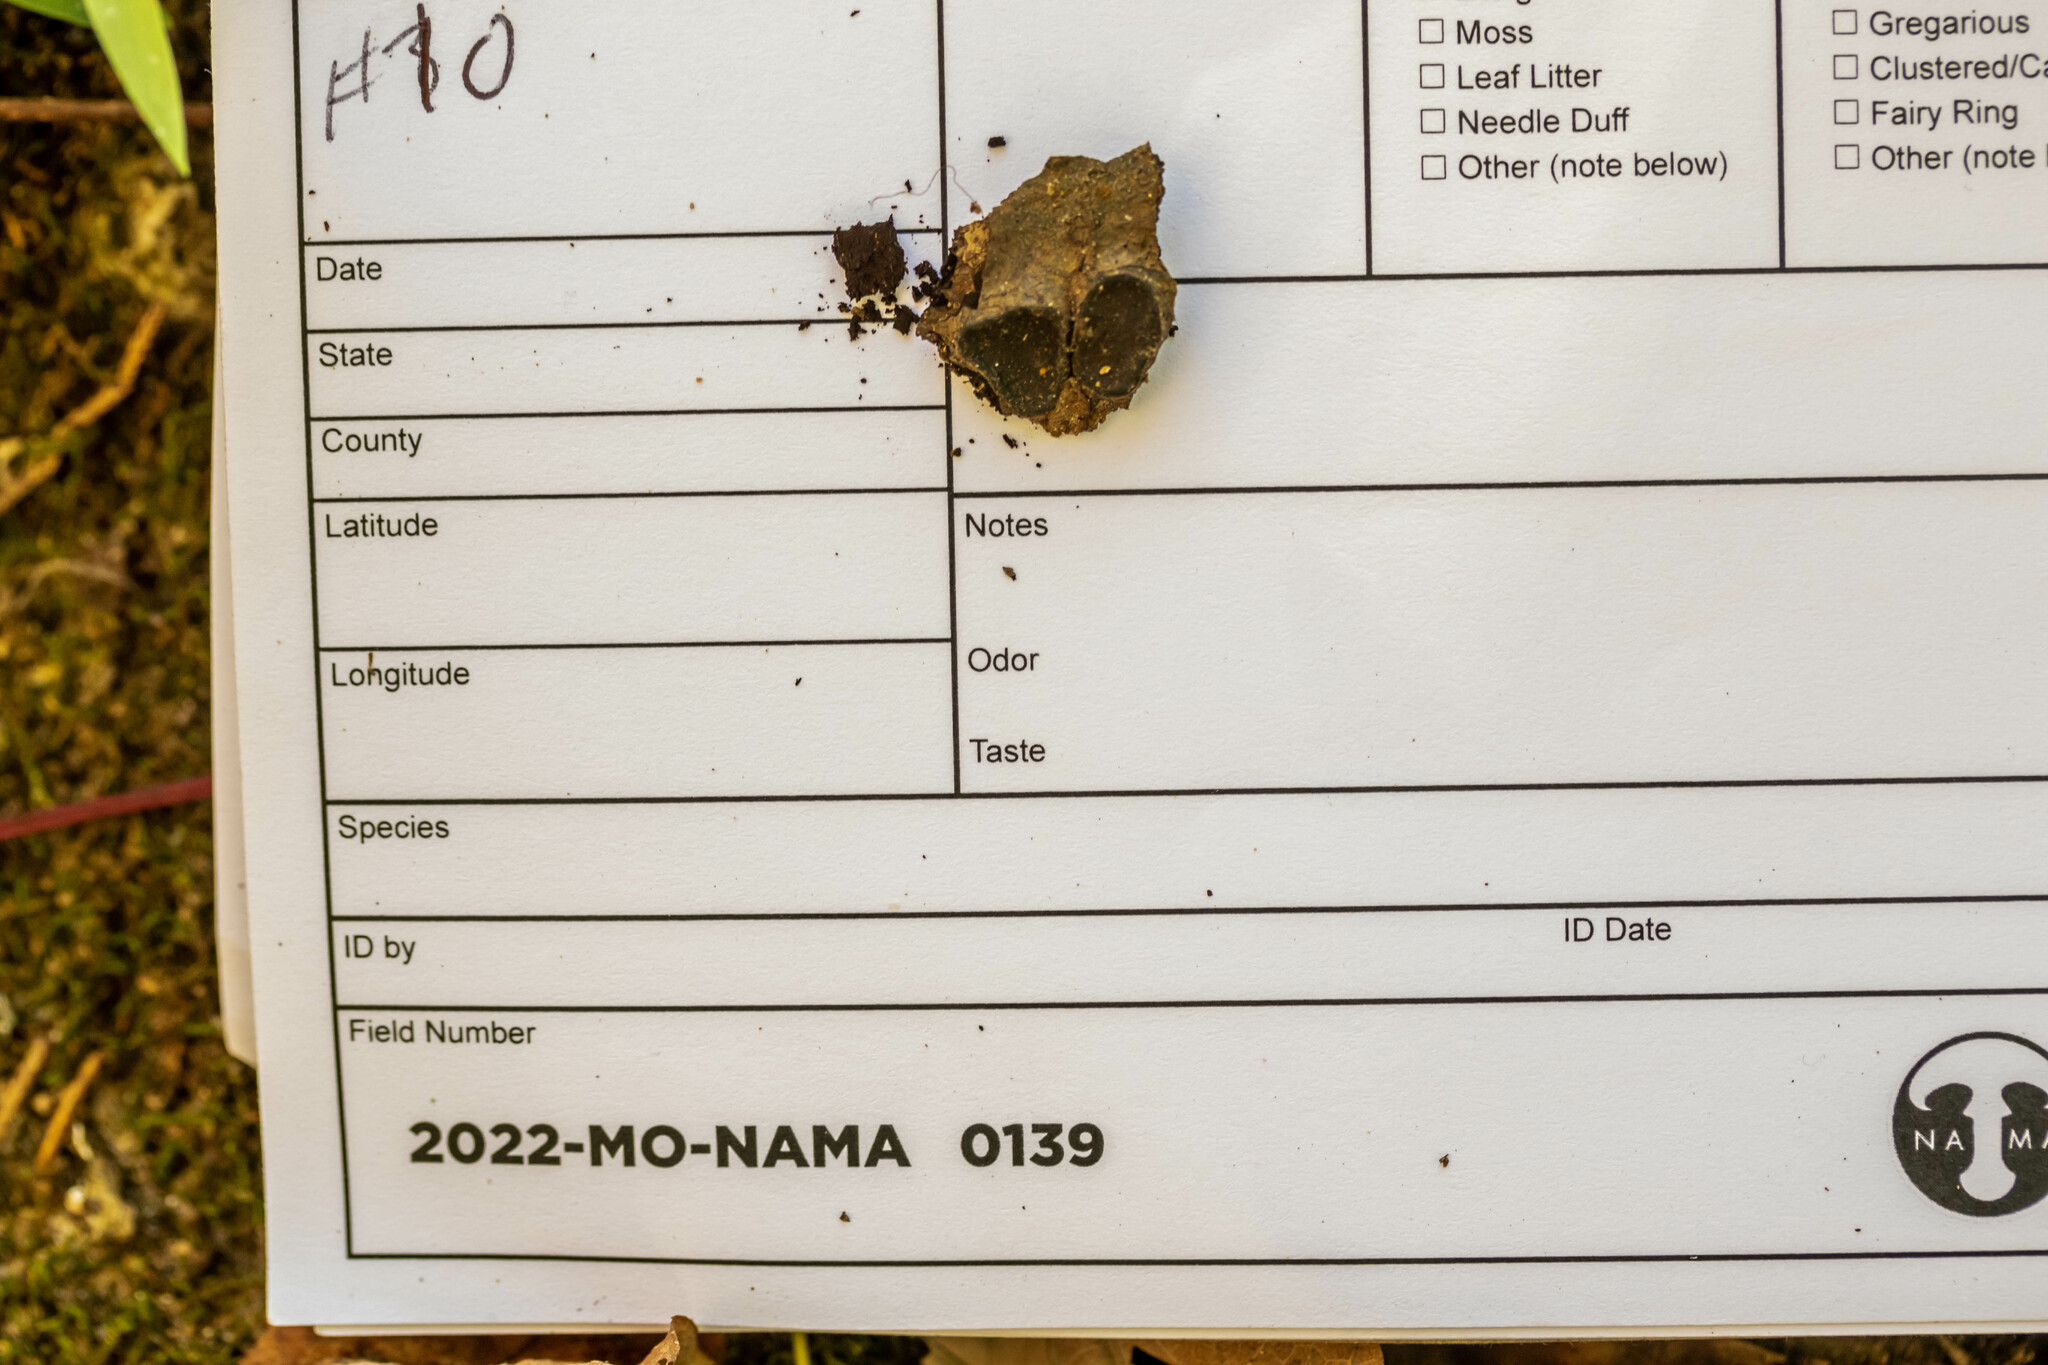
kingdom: Fungi
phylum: Ascomycota
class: Sordariomycetes
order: Xylariales
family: Graphostromataceae
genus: Biscogniauxia
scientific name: Biscogniauxia marginata
